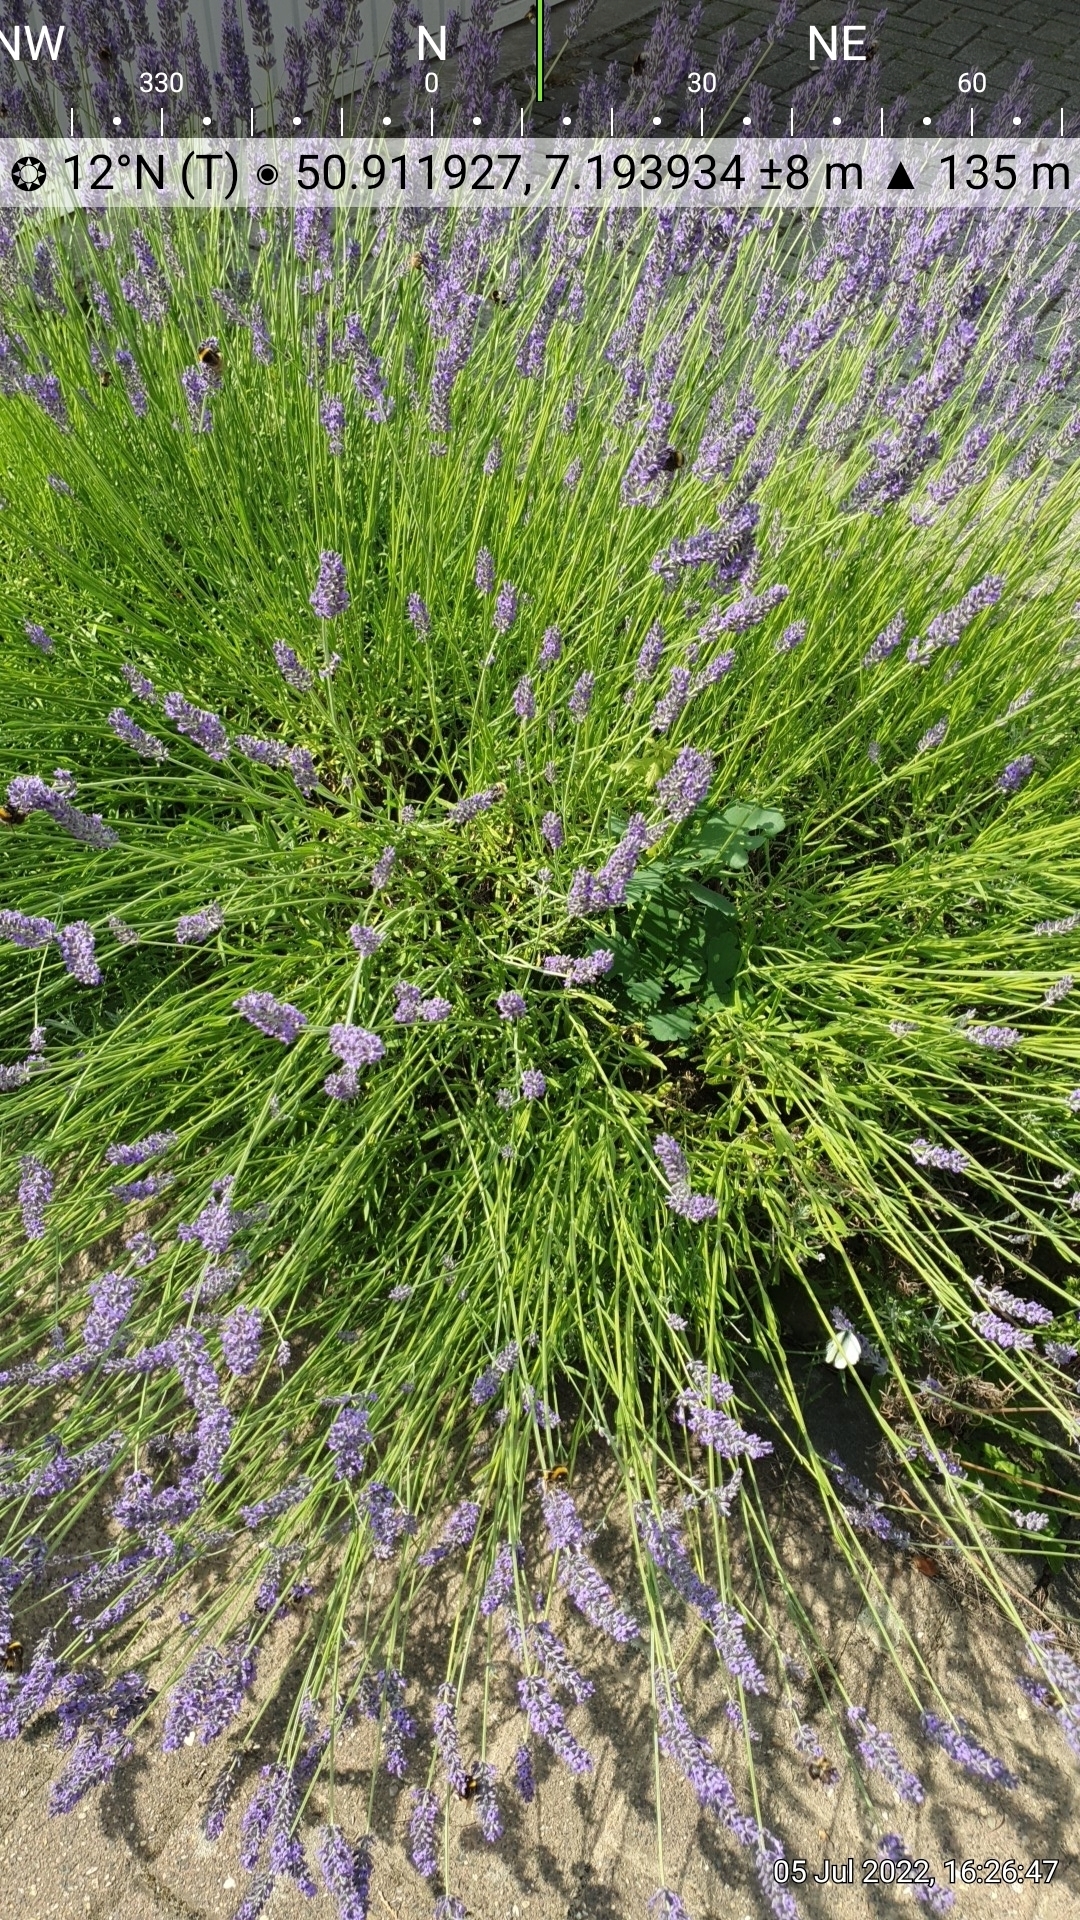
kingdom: Animalia
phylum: Arthropoda
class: Insecta
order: Hymenoptera
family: Apidae
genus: Bombus
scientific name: Bombus pascuorum
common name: Common carder bee
